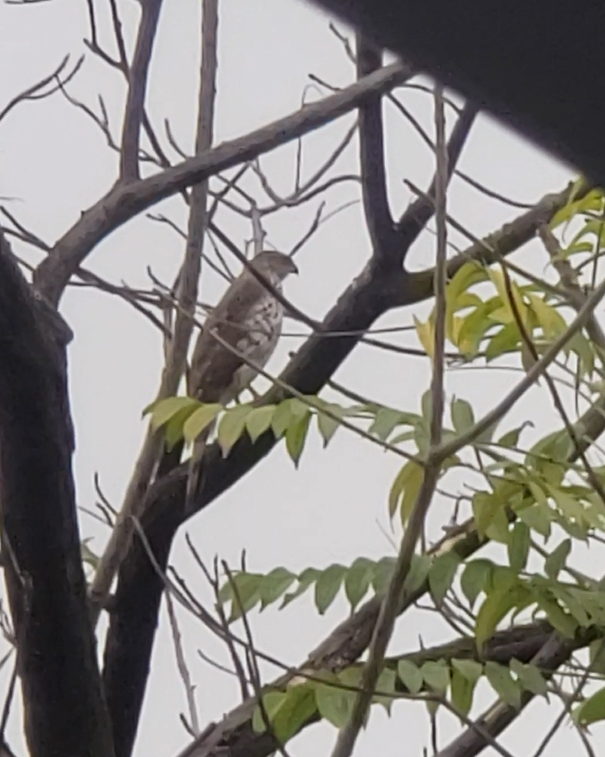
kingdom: Animalia
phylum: Chordata
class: Aves
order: Accipitriformes
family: Accipitridae
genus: Accipiter
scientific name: Accipiter cooperii
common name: Cooper's hawk
